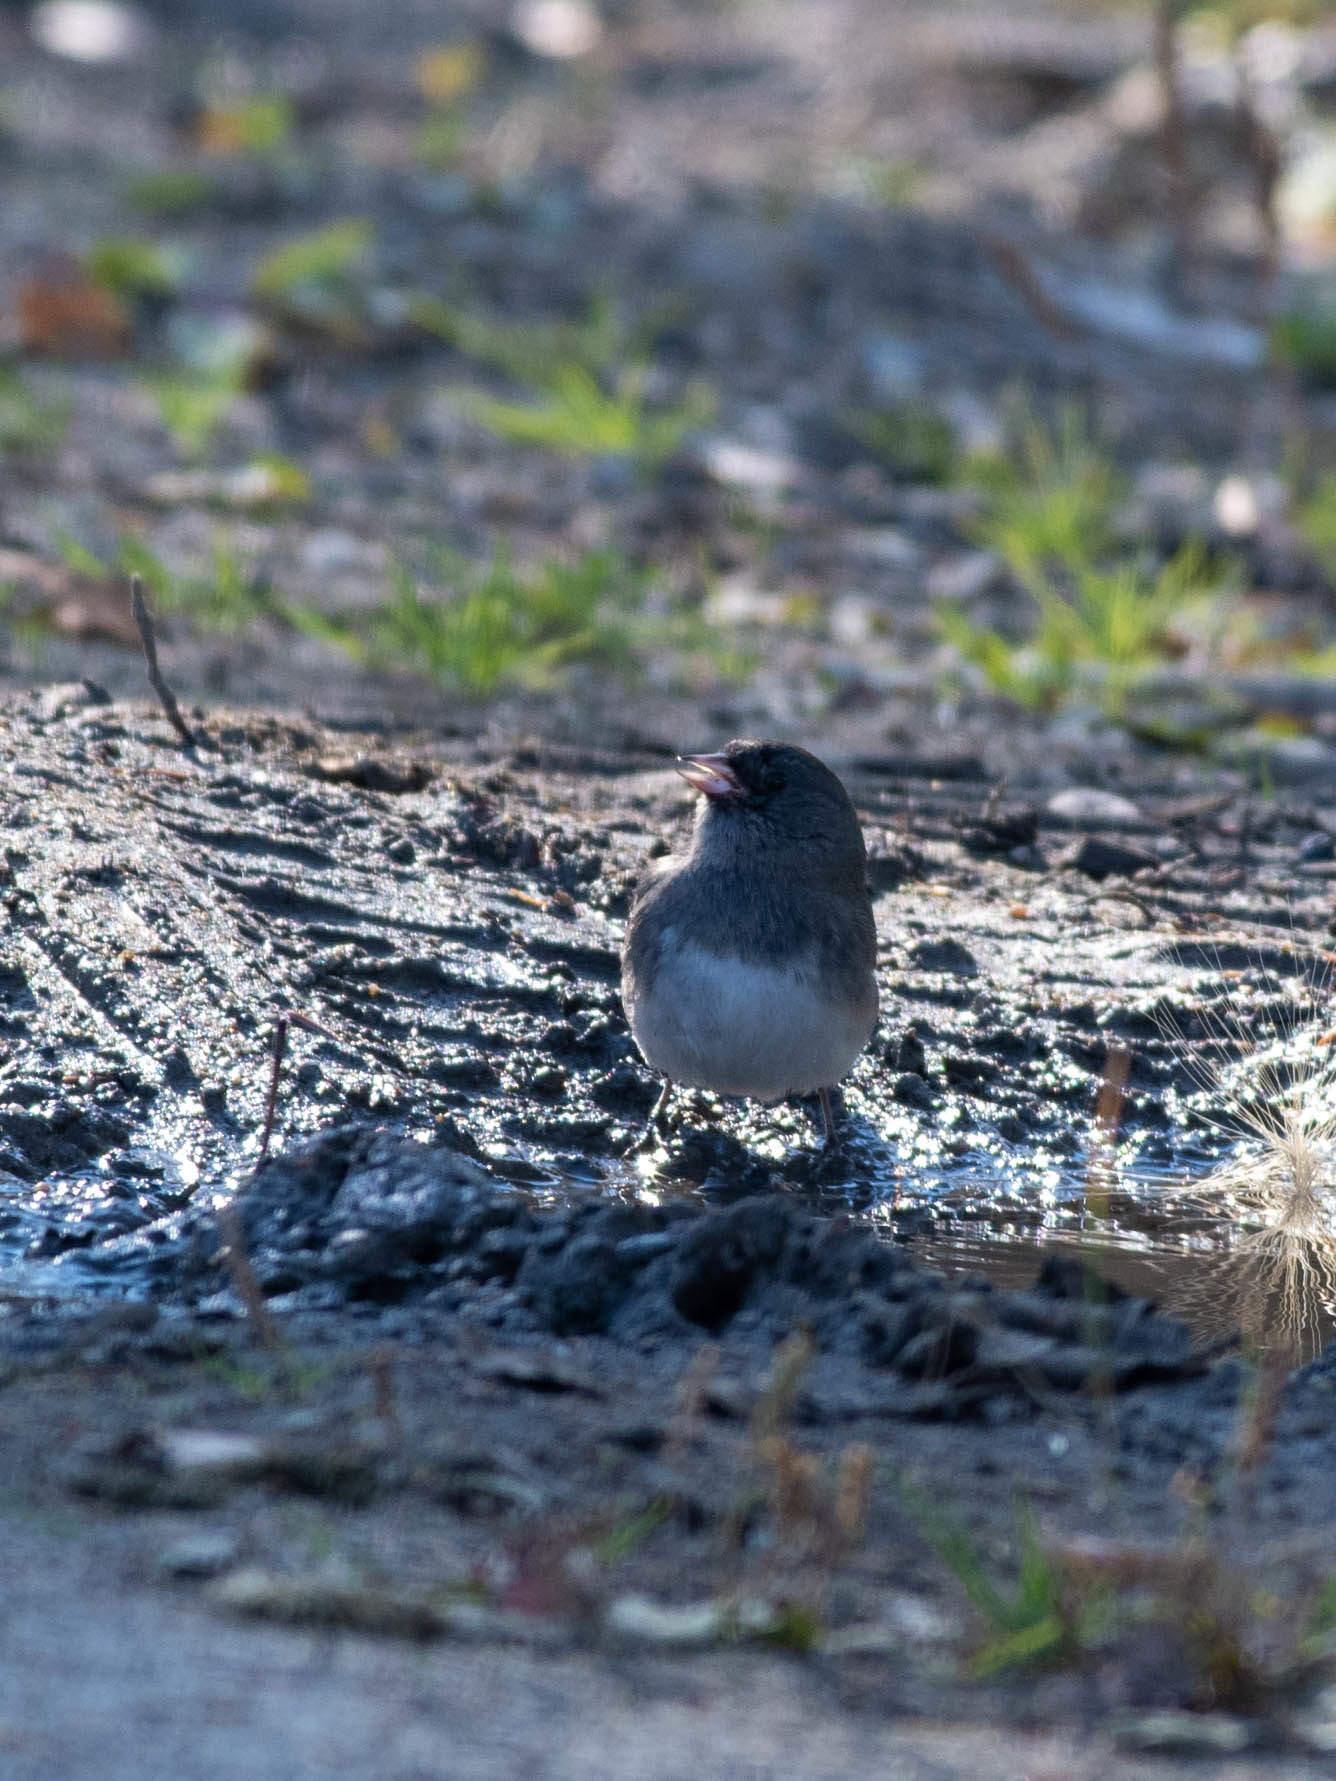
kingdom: Animalia
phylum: Chordata
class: Aves
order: Passeriformes
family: Passerellidae
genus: Junco
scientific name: Junco hyemalis
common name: Dark-eyed junco
